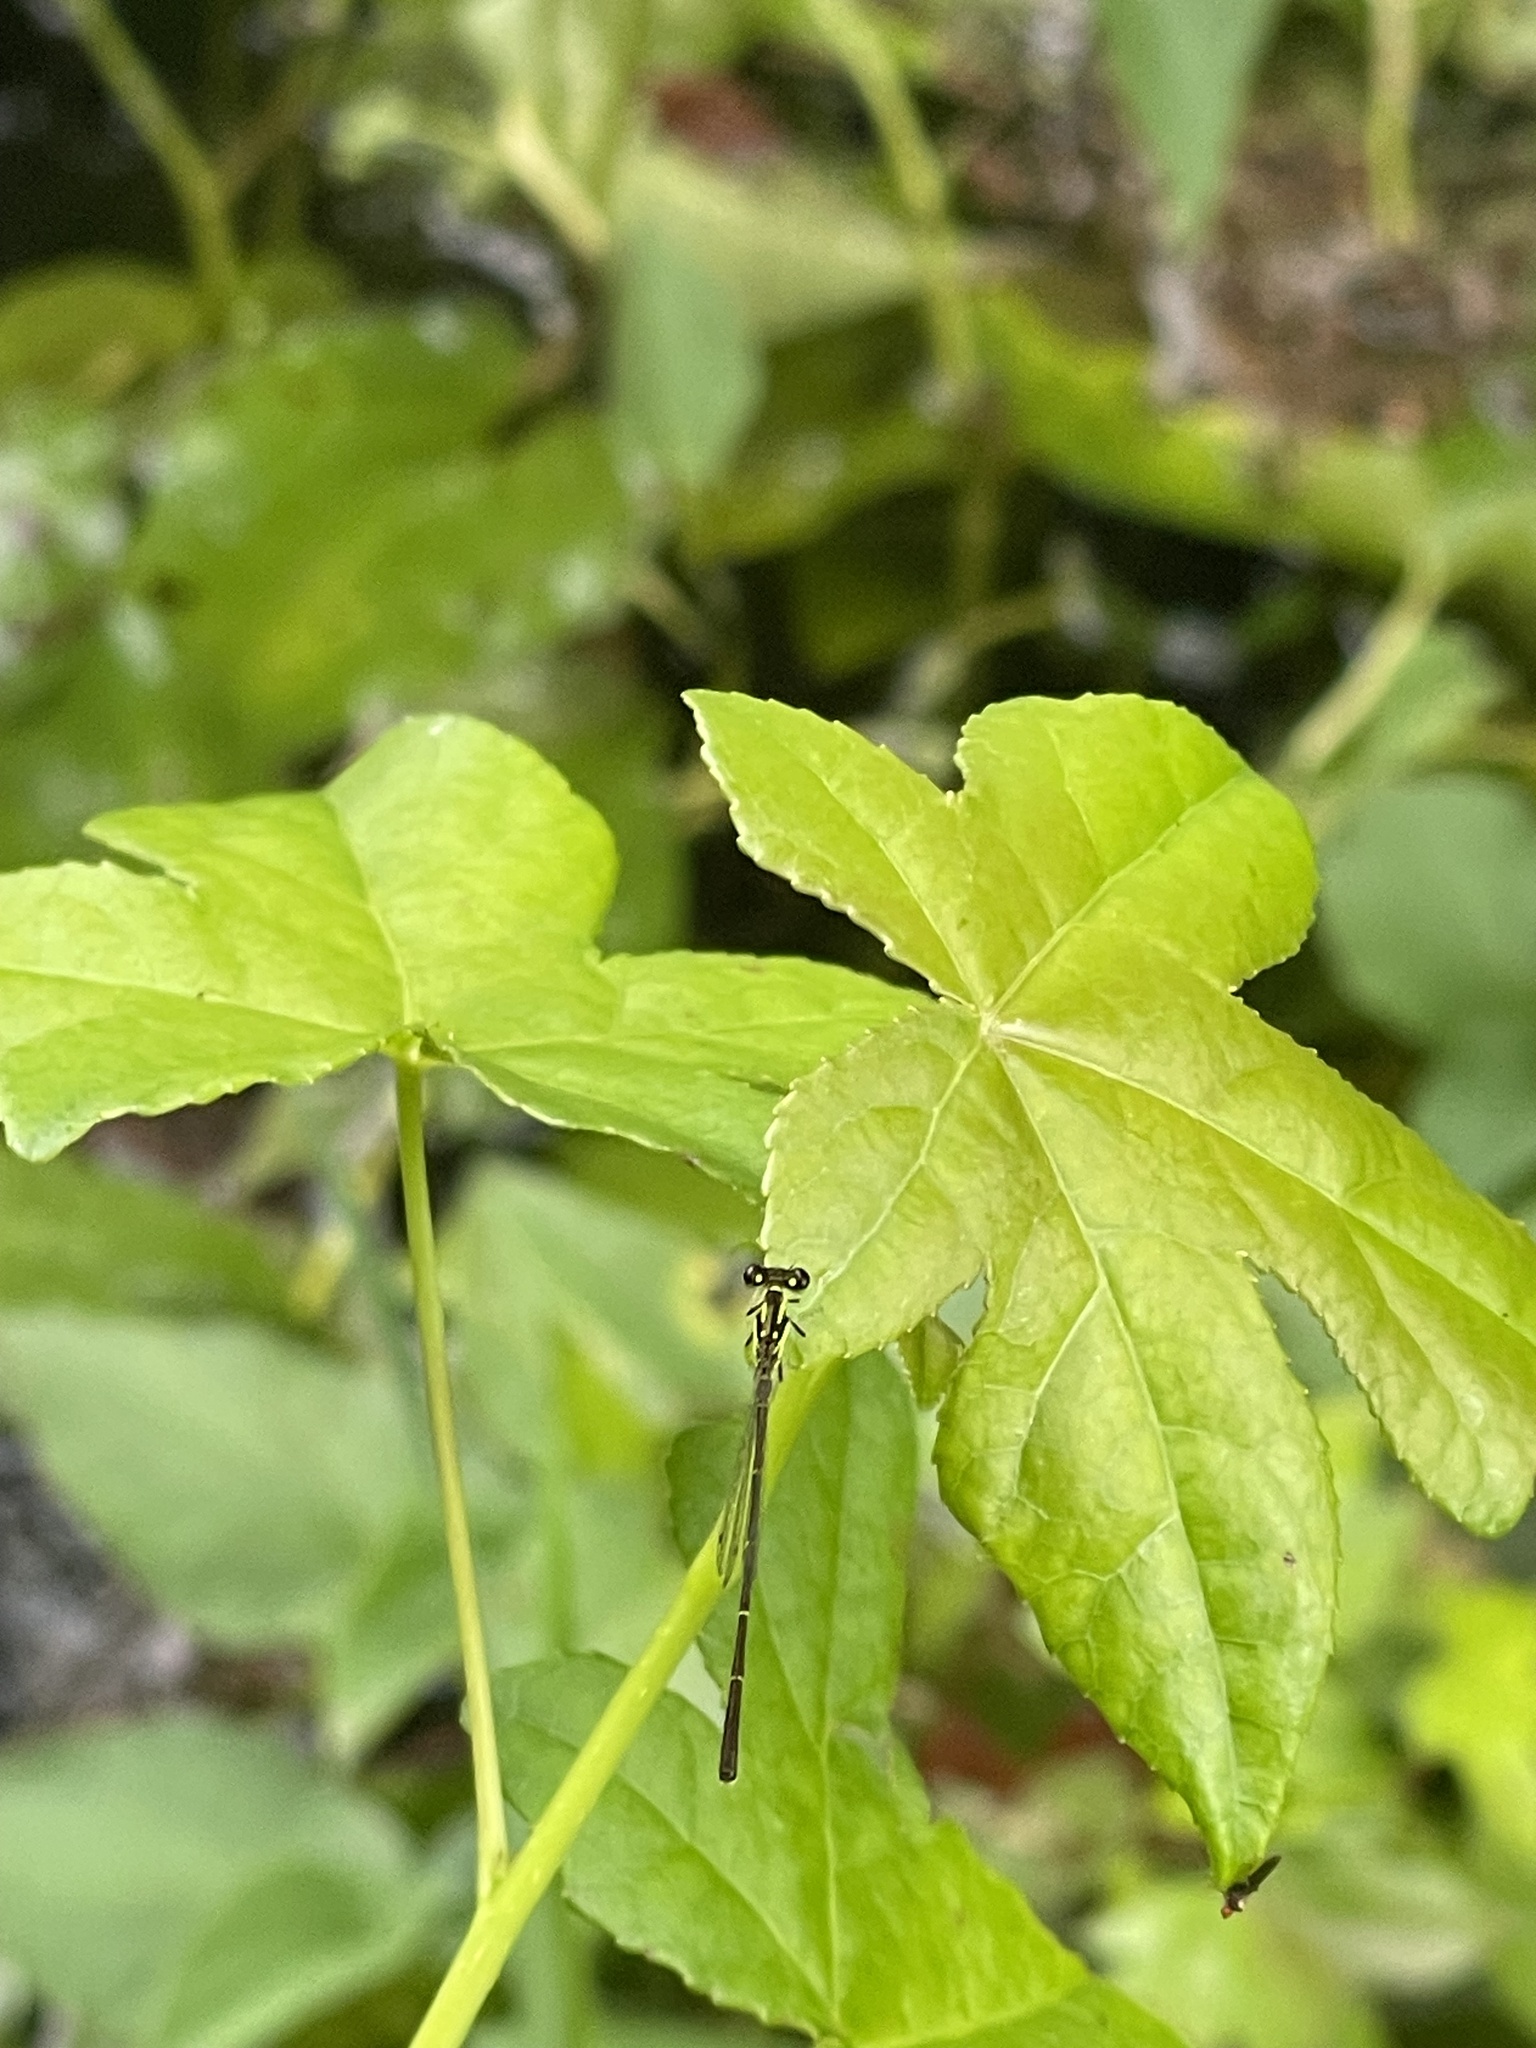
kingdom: Animalia
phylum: Arthropoda
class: Insecta
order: Odonata
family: Coenagrionidae
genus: Ischnura
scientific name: Ischnura posita
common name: Fragile forktail
